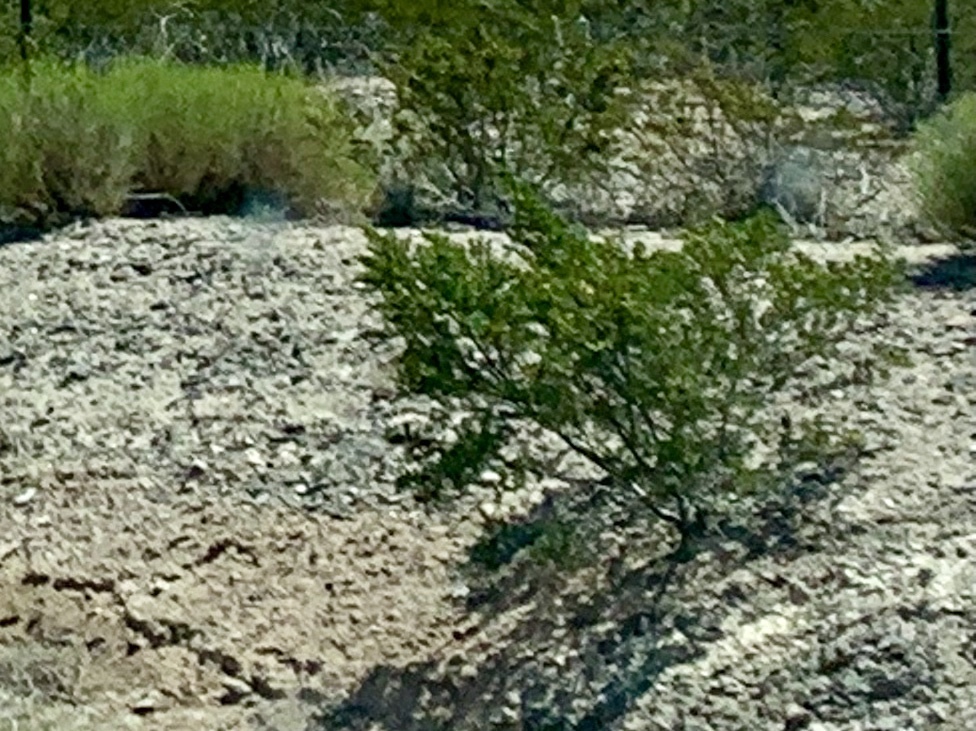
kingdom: Plantae
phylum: Tracheophyta
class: Magnoliopsida
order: Zygophyllales
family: Zygophyllaceae
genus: Larrea
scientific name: Larrea tridentata
